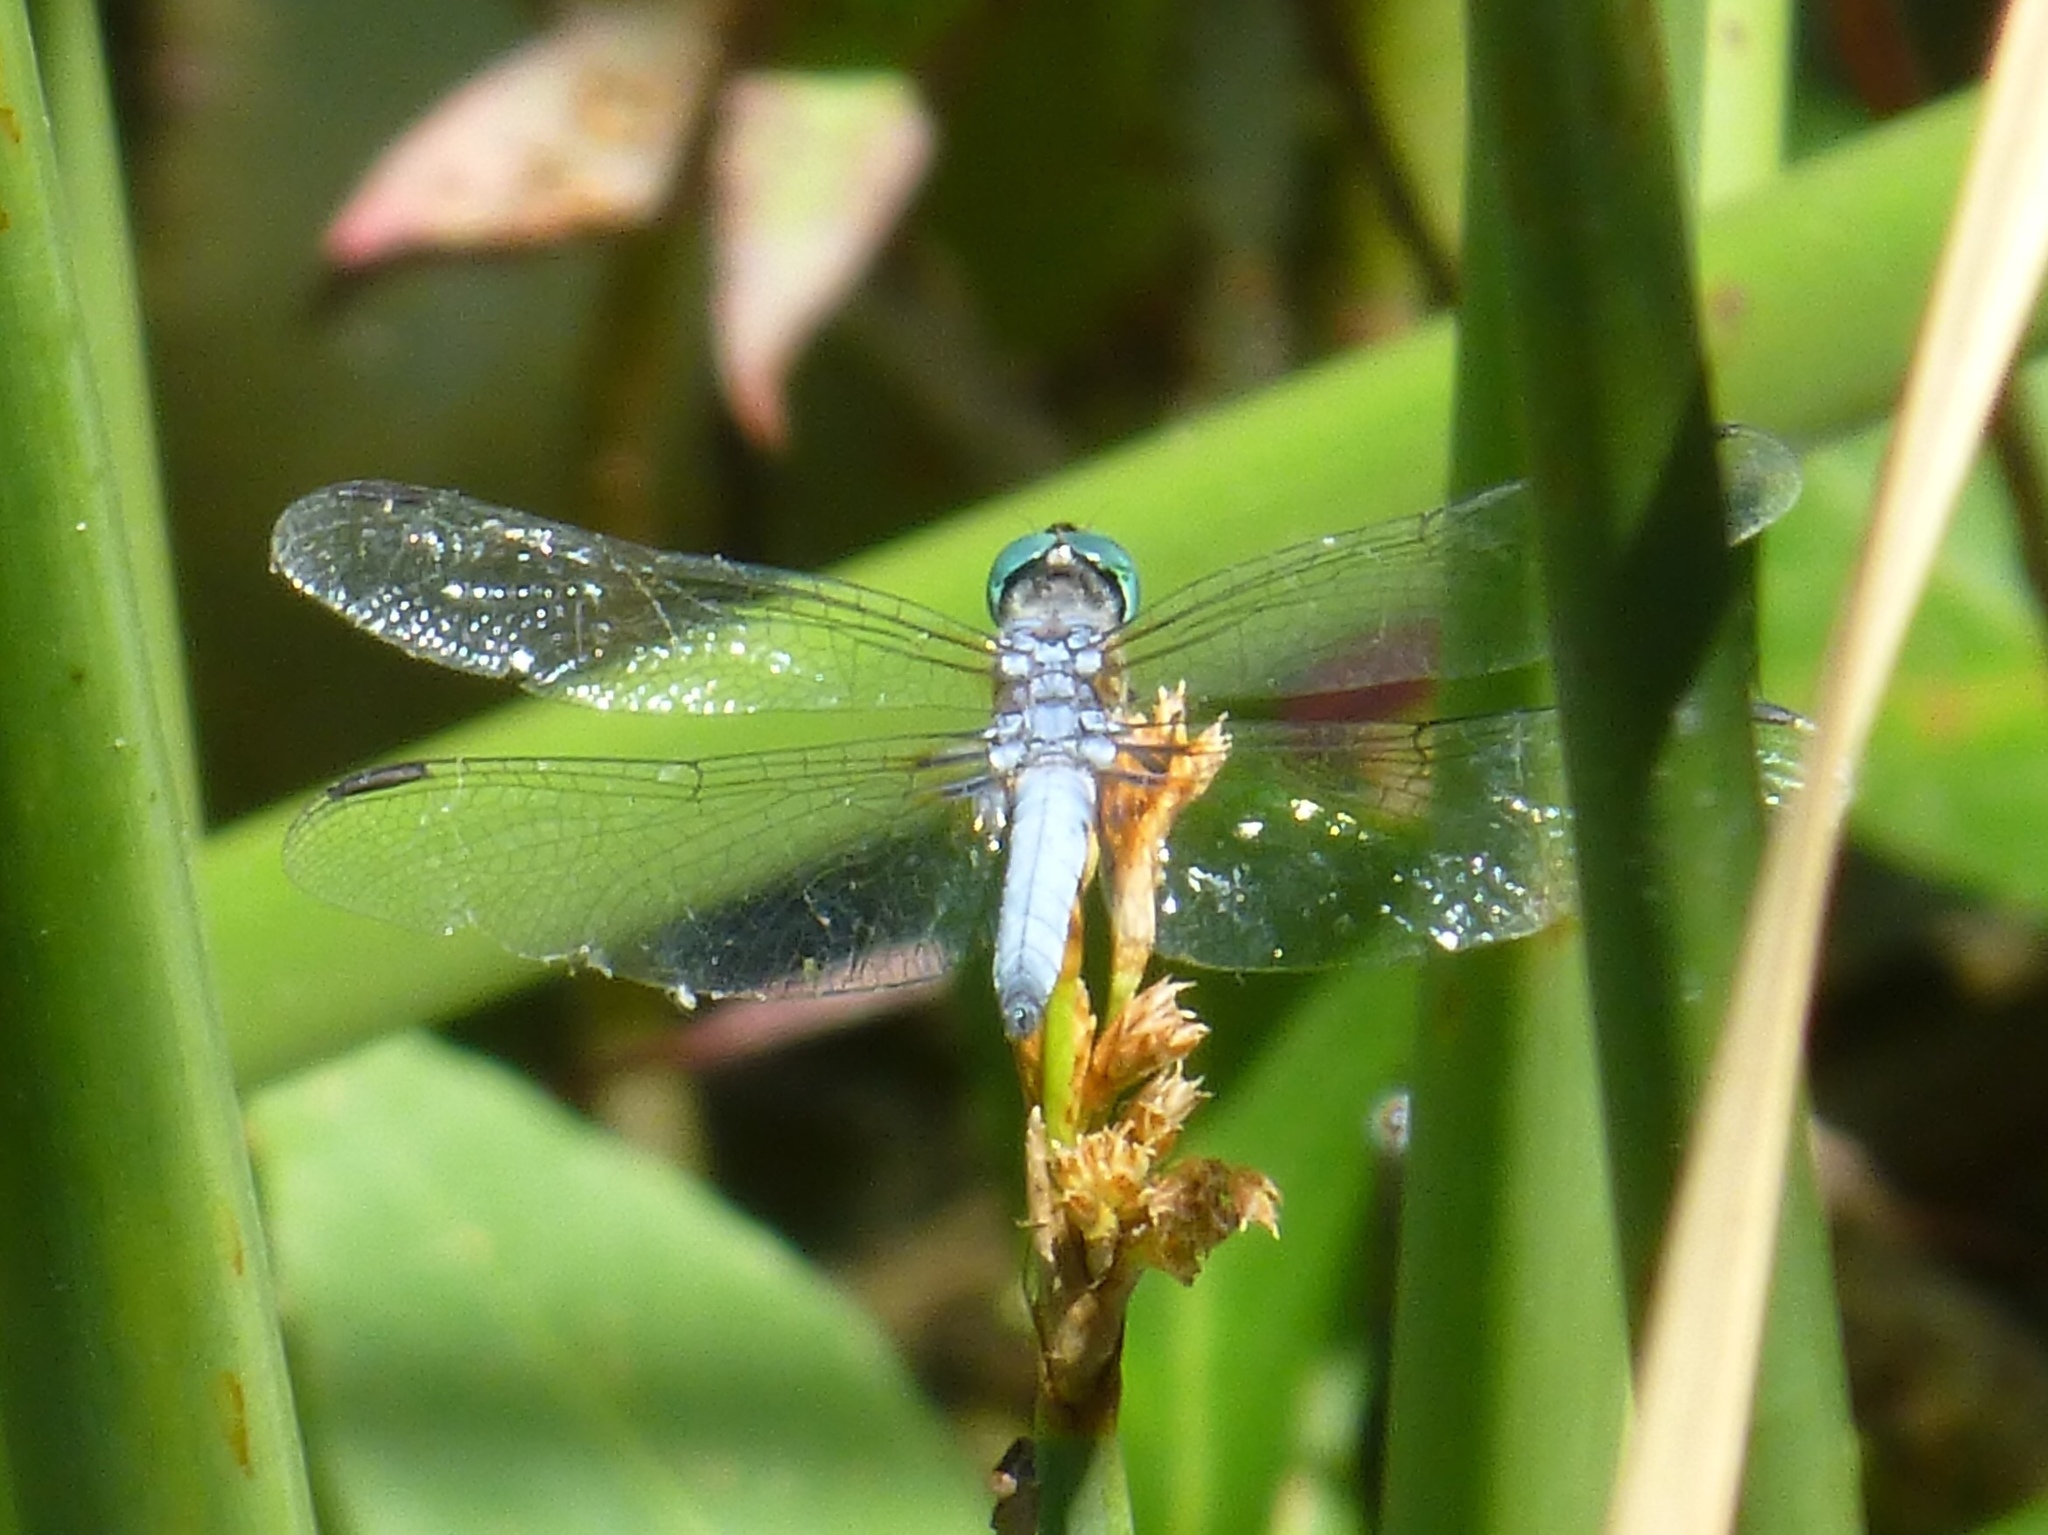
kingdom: Animalia
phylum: Arthropoda
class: Insecta
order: Odonata
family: Libellulidae
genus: Pachydiplax
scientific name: Pachydiplax longipennis
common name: Blue dasher
